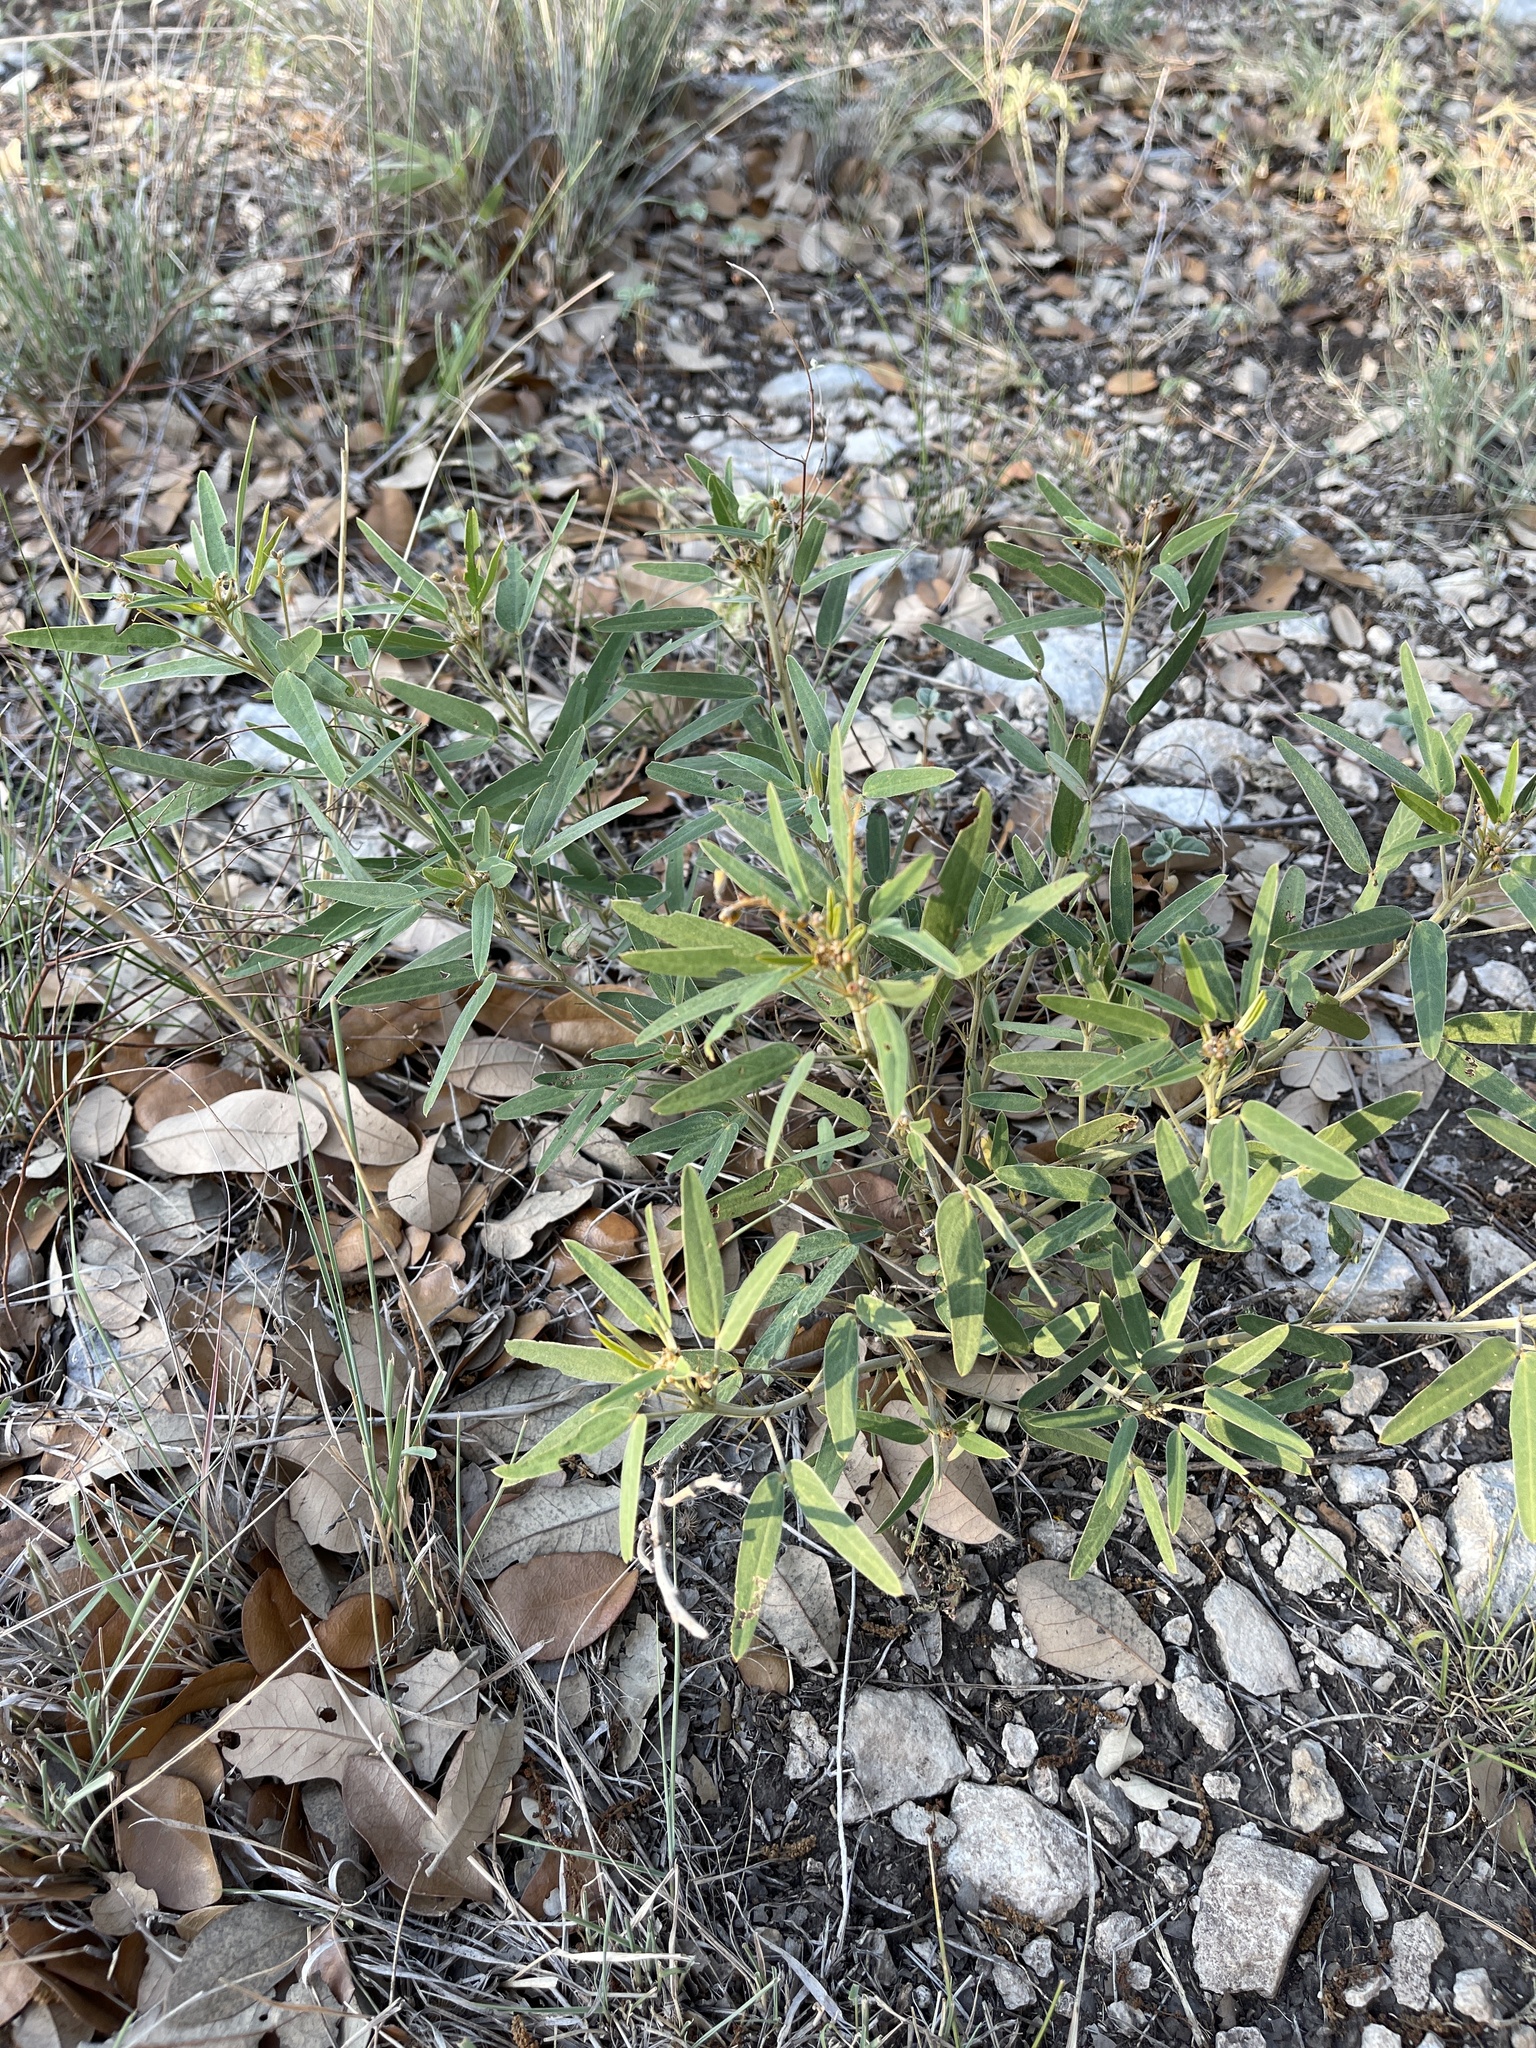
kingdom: Plantae
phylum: Tracheophyta
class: Magnoliopsida
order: Fabales
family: Fabaceae
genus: Senna
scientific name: Senna roemeriana
